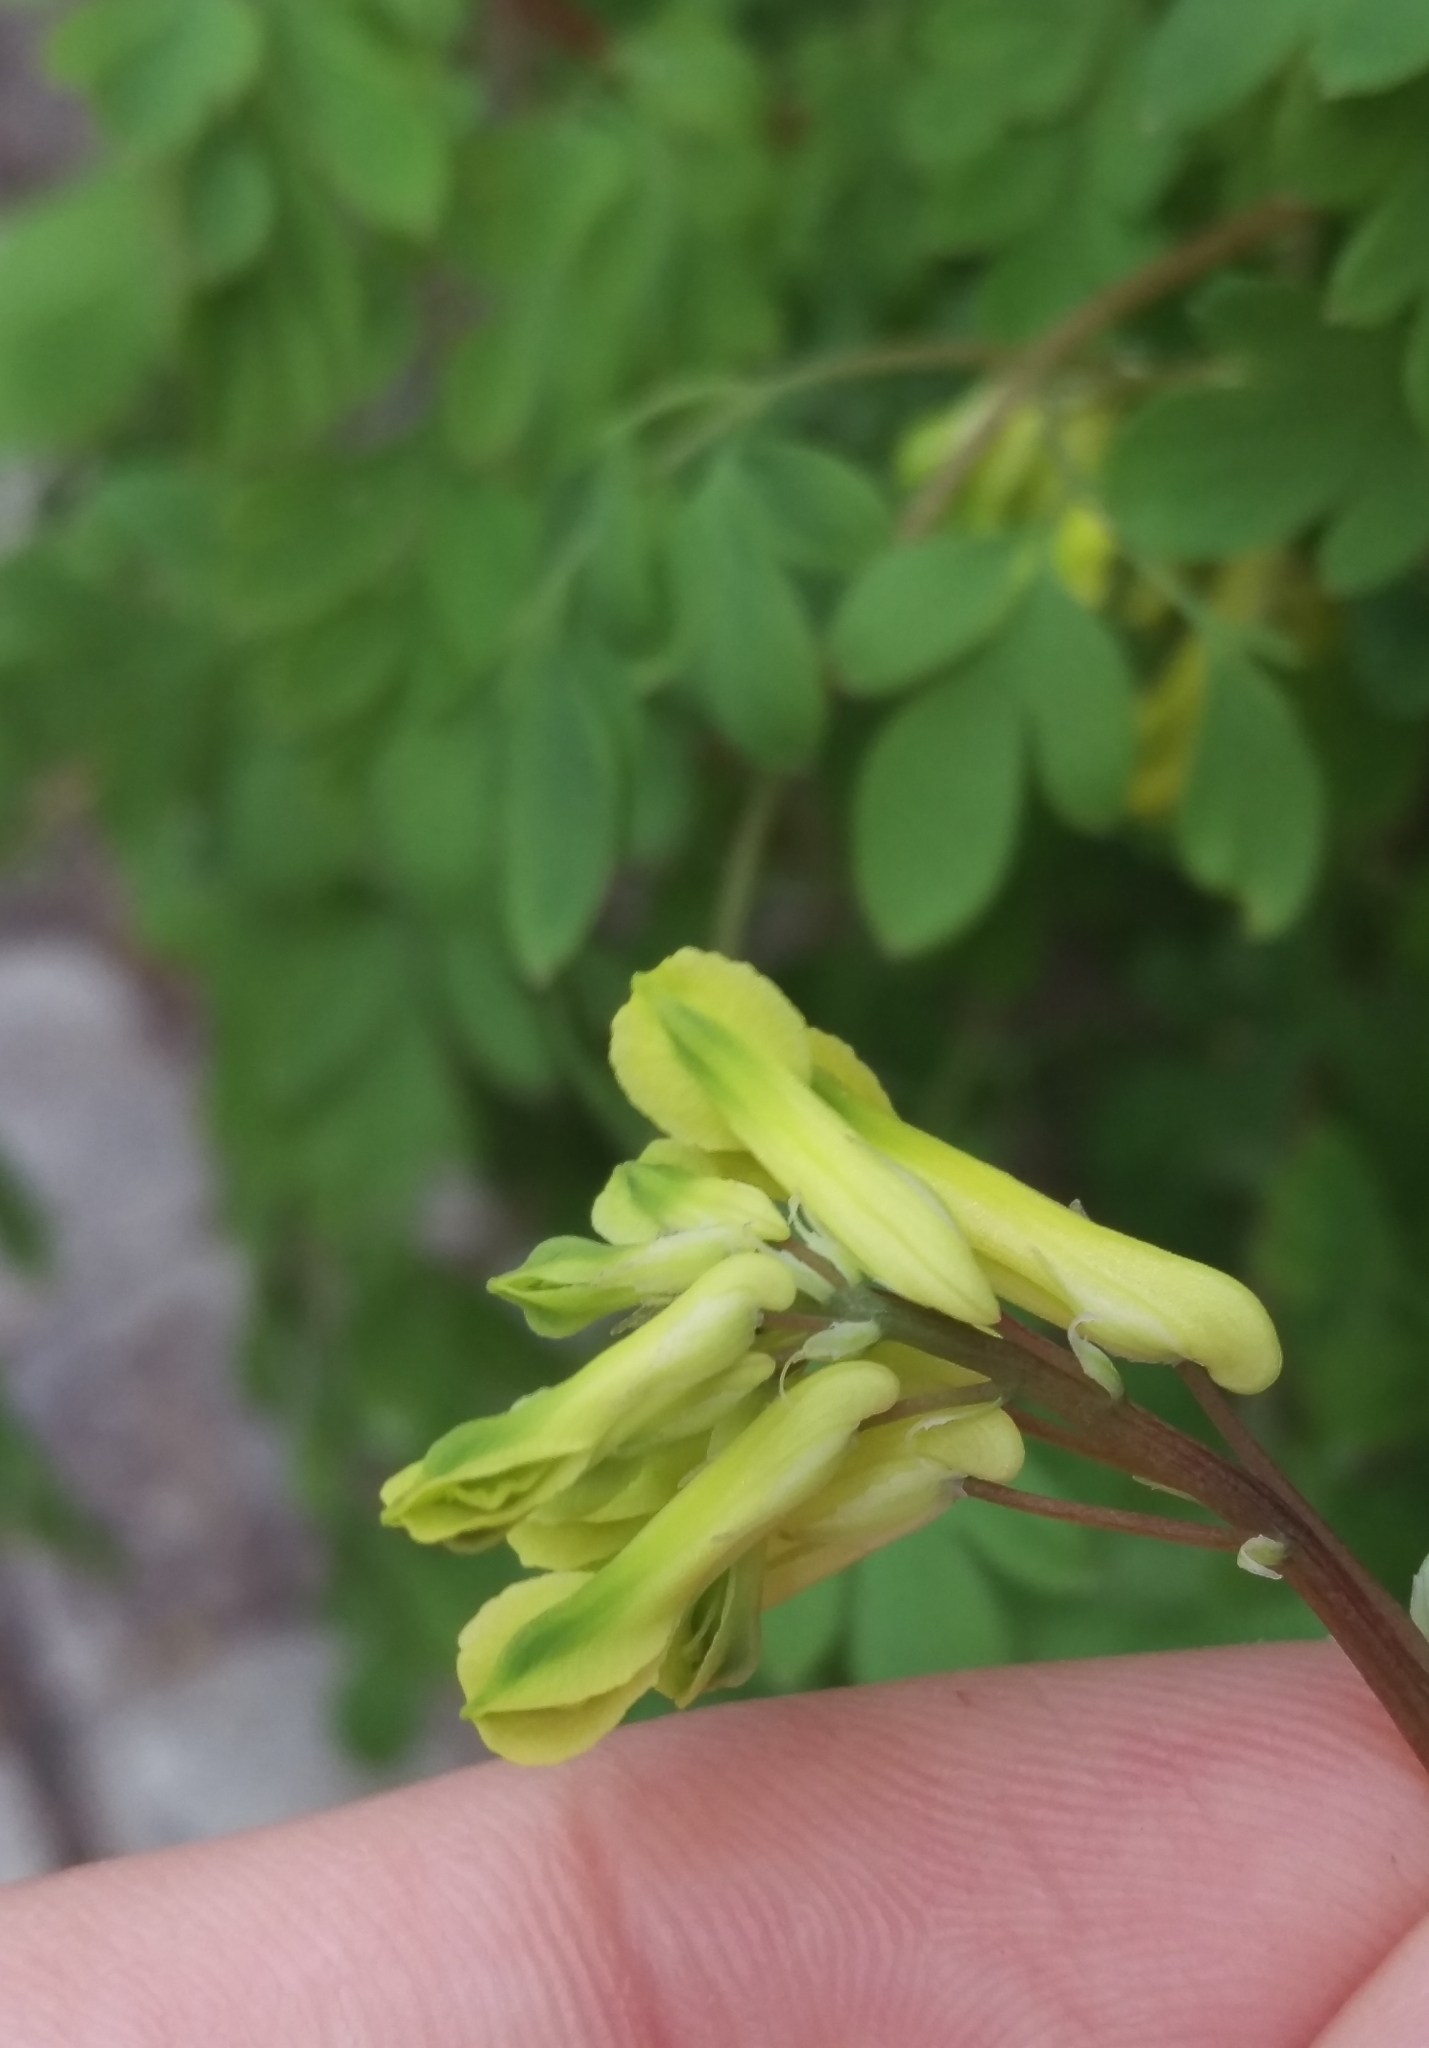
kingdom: Plantae
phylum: Tracheophyta
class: Magnoliopsida
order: Ranunculales
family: Papaveraceae
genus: Pseudofumaria
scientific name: Pseudofumaria lutea
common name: Yellow corydalis
